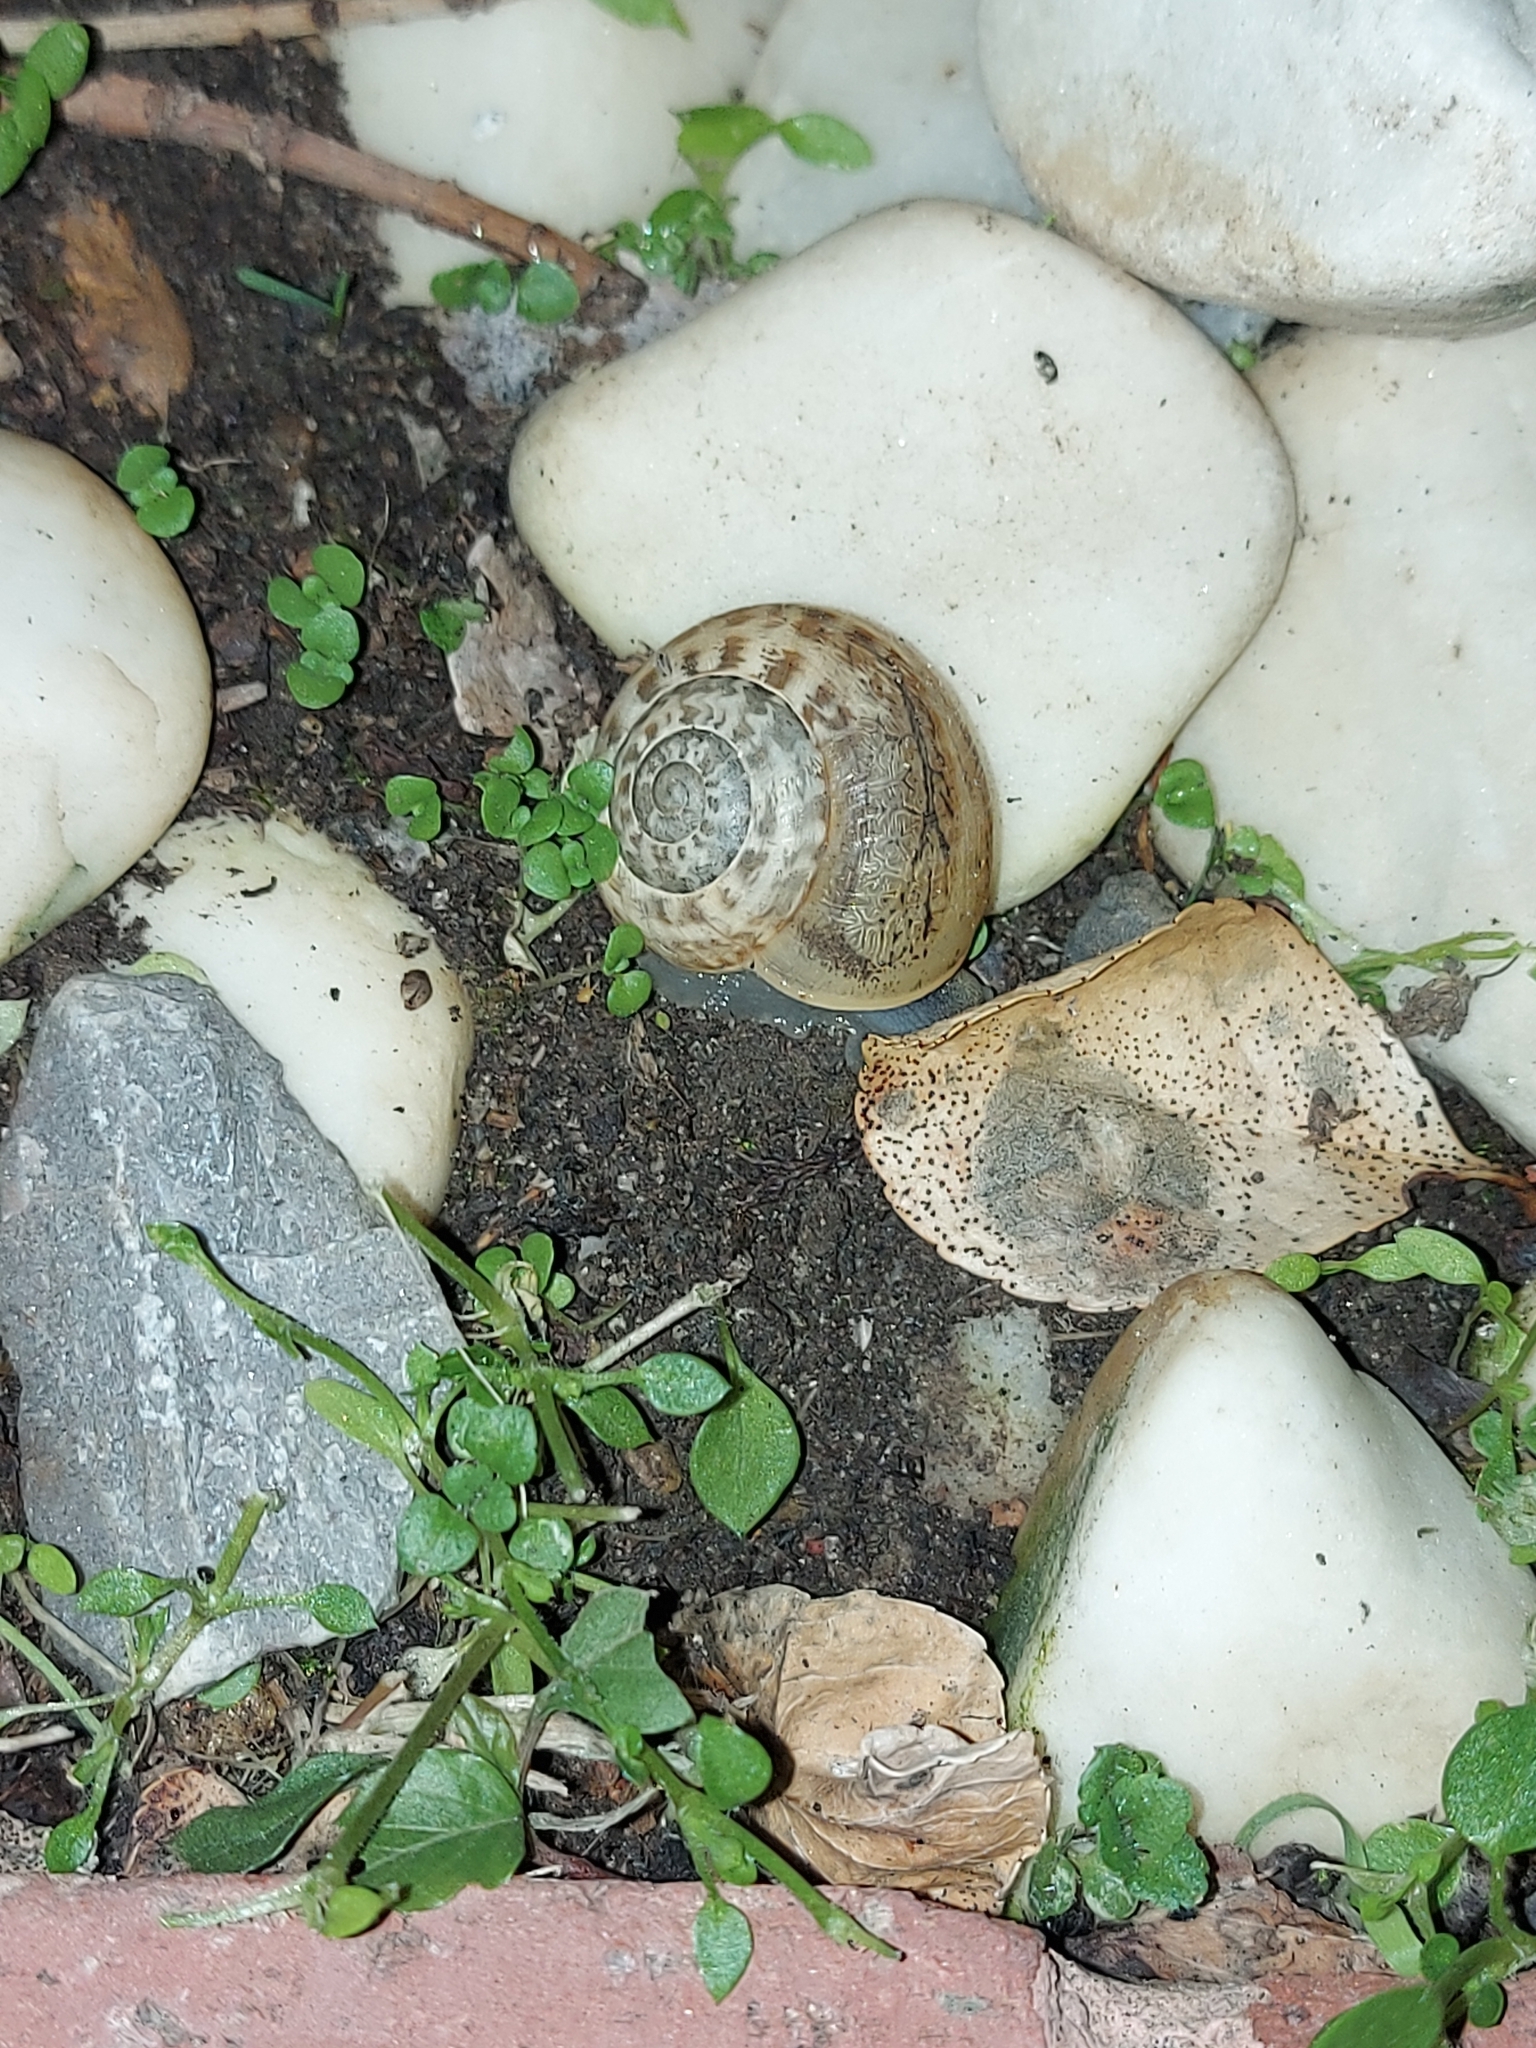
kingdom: Animalia
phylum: Mollusca
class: Gastropoda
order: Stylommatophora
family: Helicidae
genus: Eobania
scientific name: Eobania vermiculata
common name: Chocolateband snail
